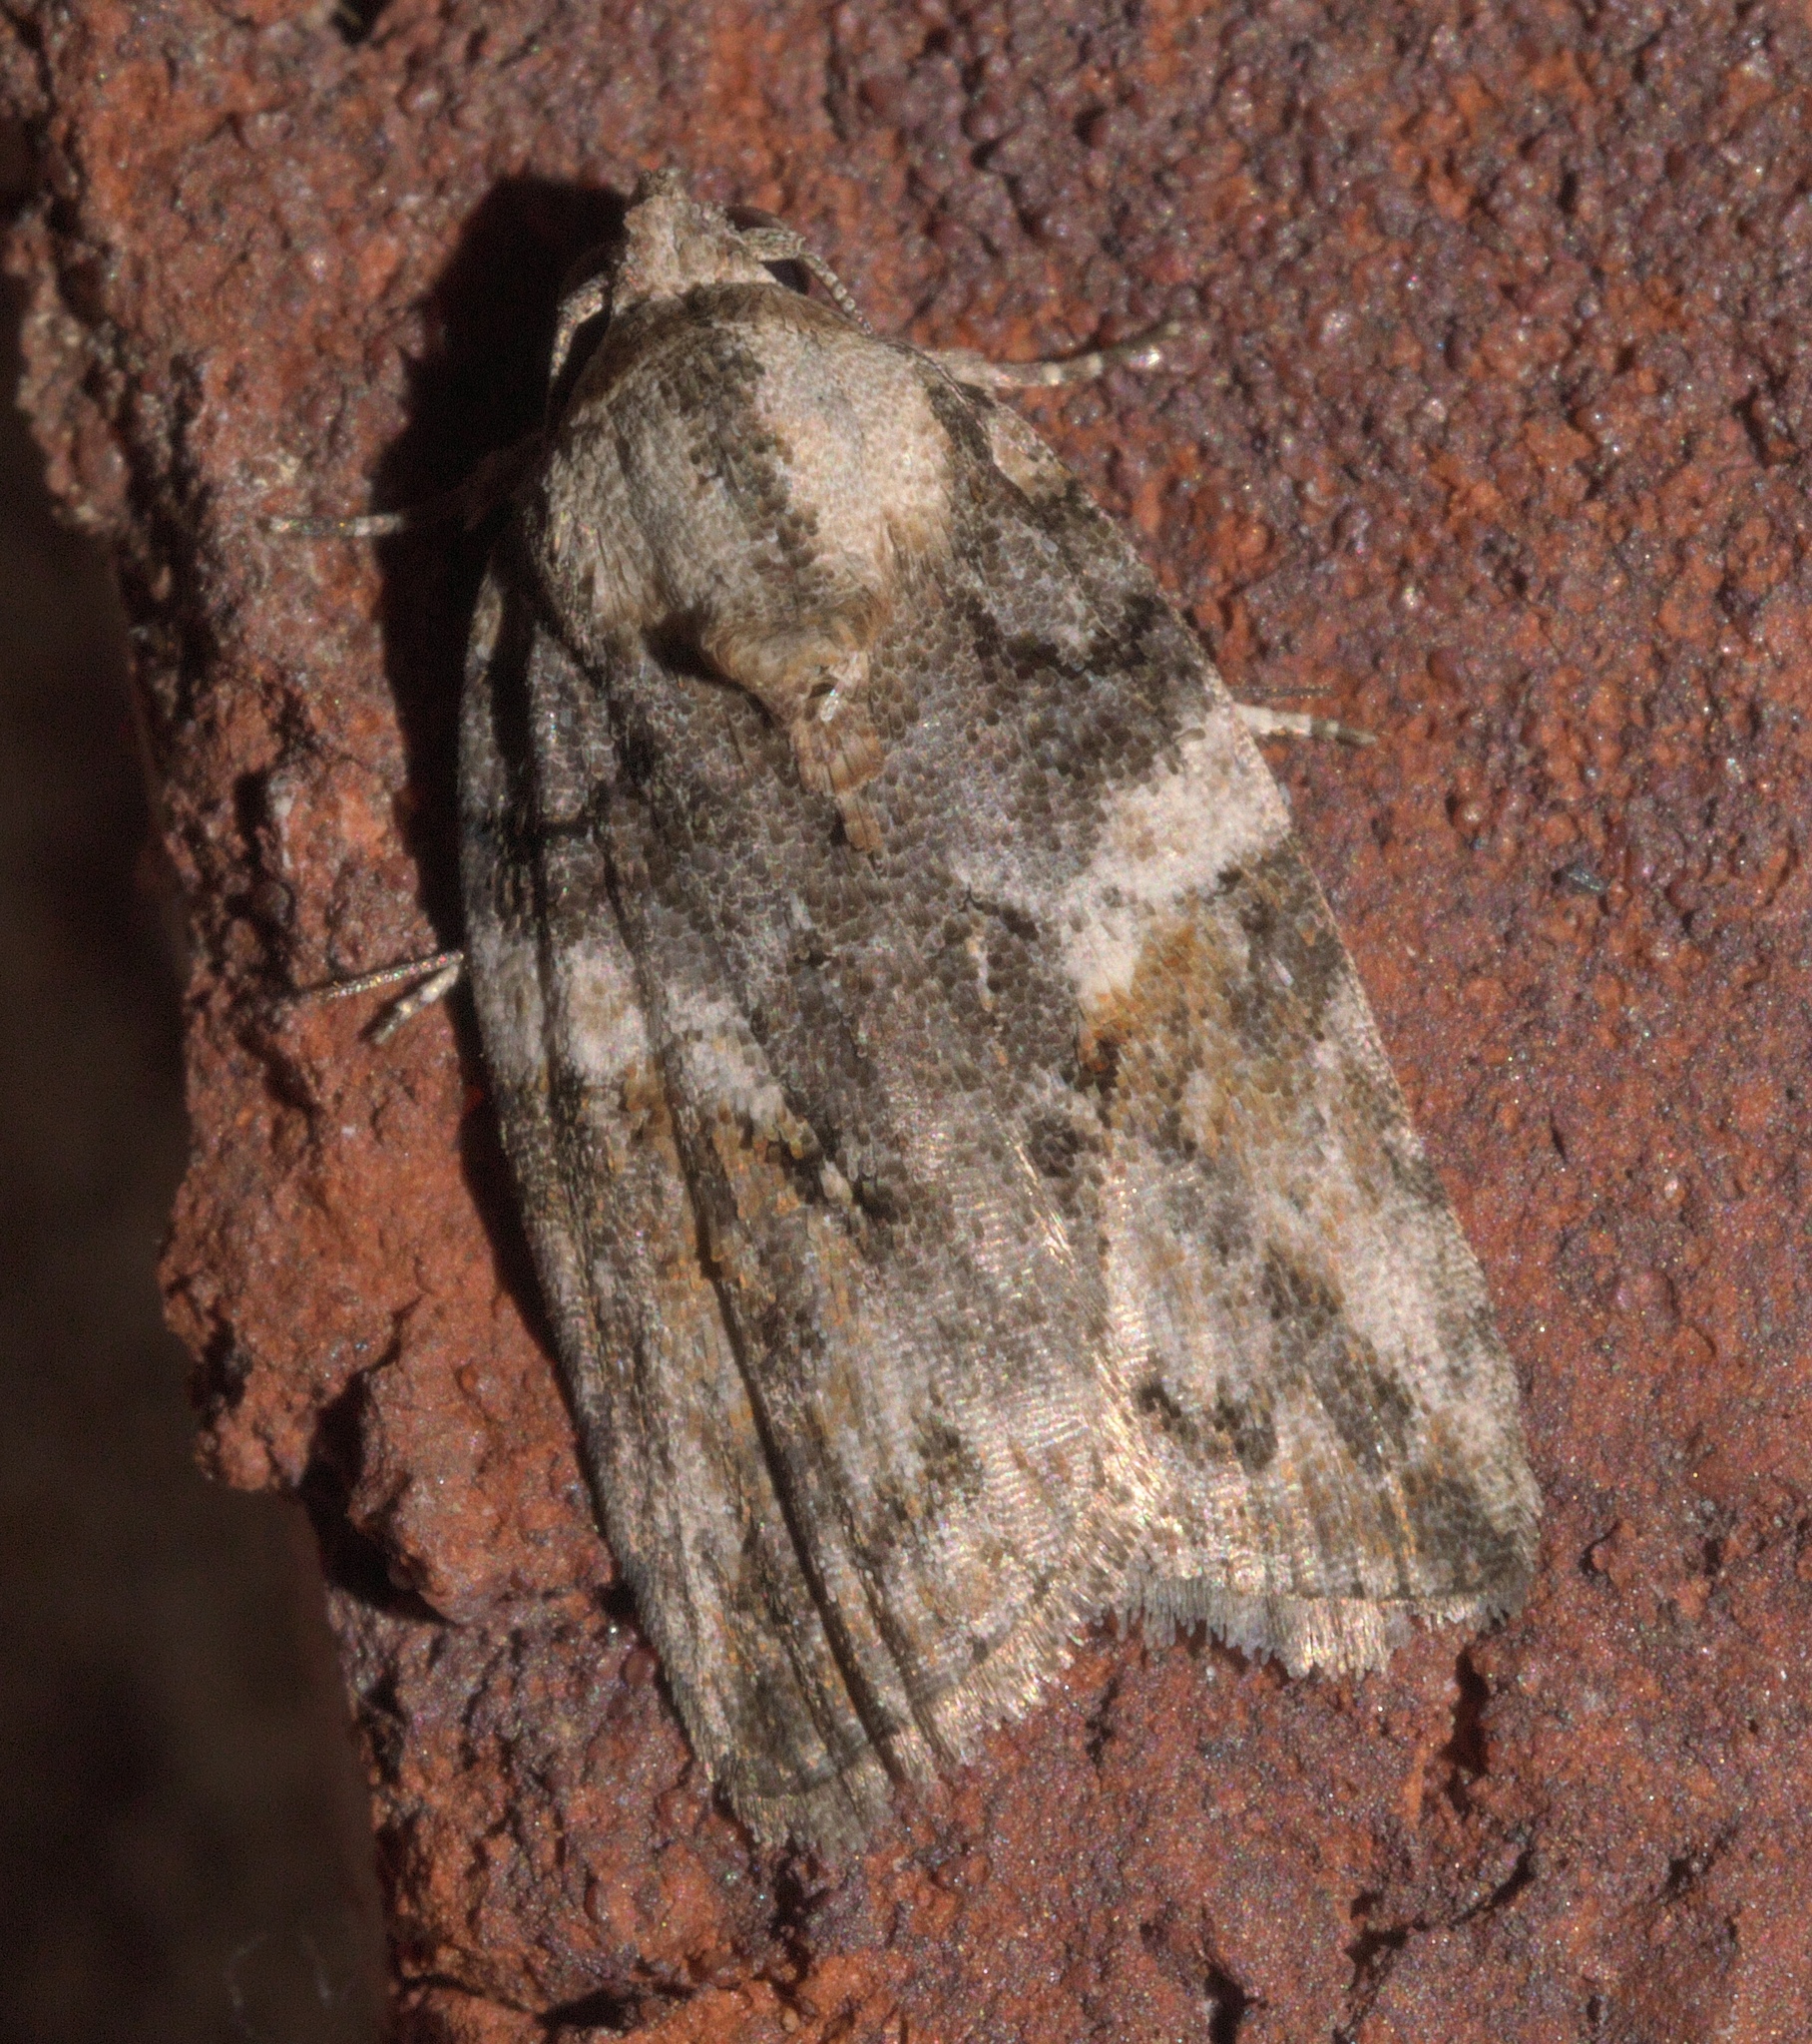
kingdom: Animalia
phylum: Arthropoda
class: Insecta
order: Lepidoptera
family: Nolidae
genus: Garella
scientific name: Garella nilotica
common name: Black-olive caterpillar moth
